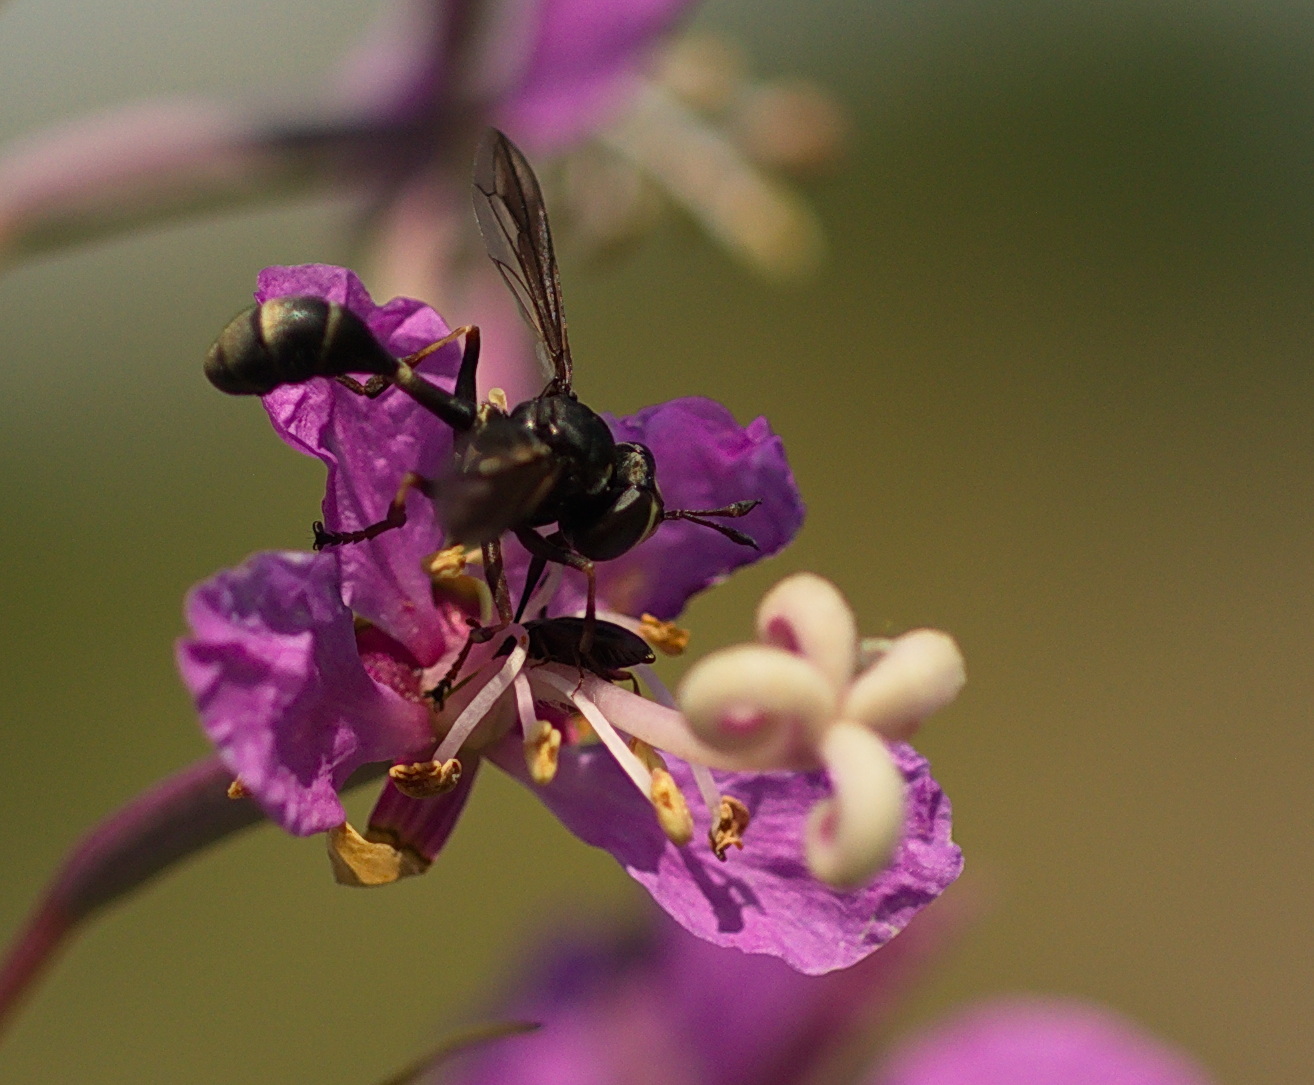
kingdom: Animalia
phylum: Arthropoda
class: Insecta
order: Diptera
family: Conopidae
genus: Physocephala
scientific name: Physocephala furcillata
